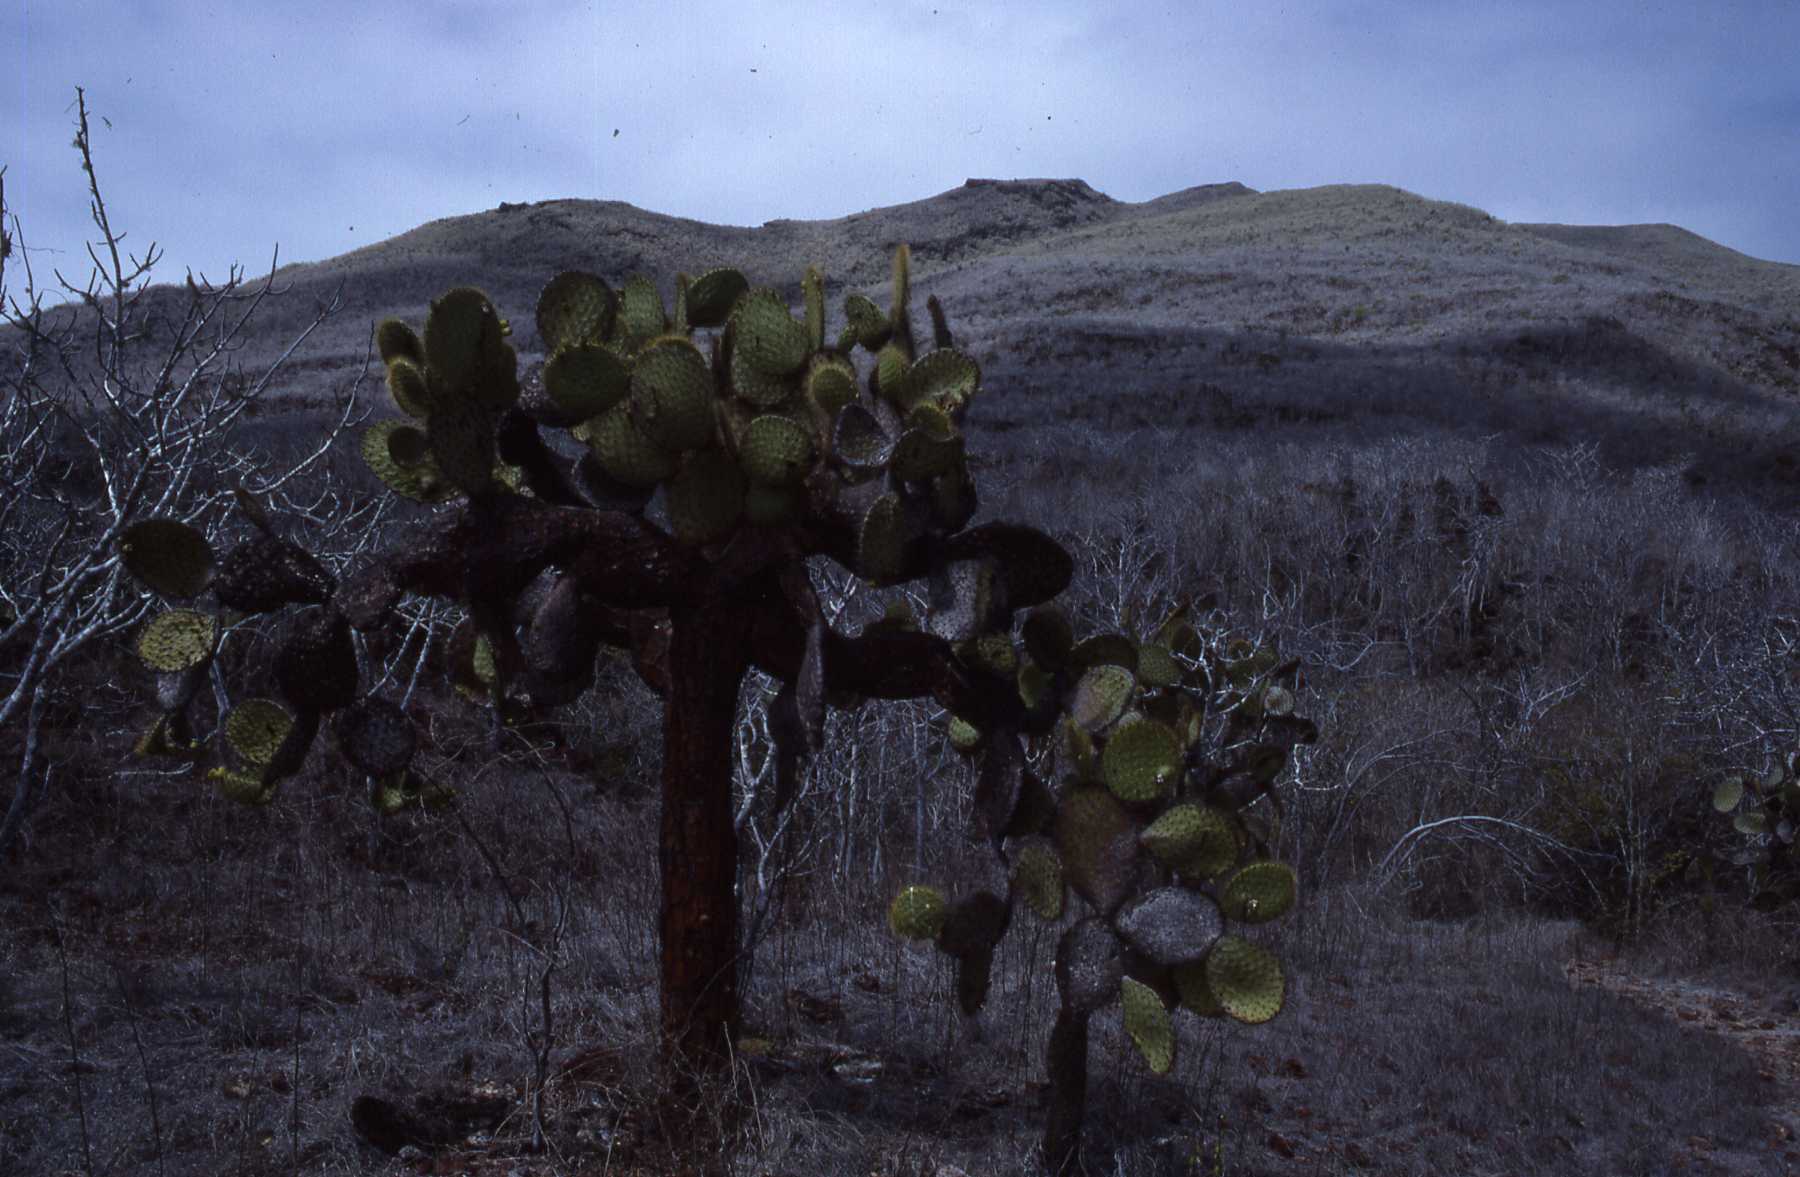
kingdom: Plantae
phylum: Tracheophyta
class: Magnoliopsida
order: Caryophyllales
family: Cactaceae
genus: Opuntia
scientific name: Opuntia galapageia
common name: Galápagos prickly pear
